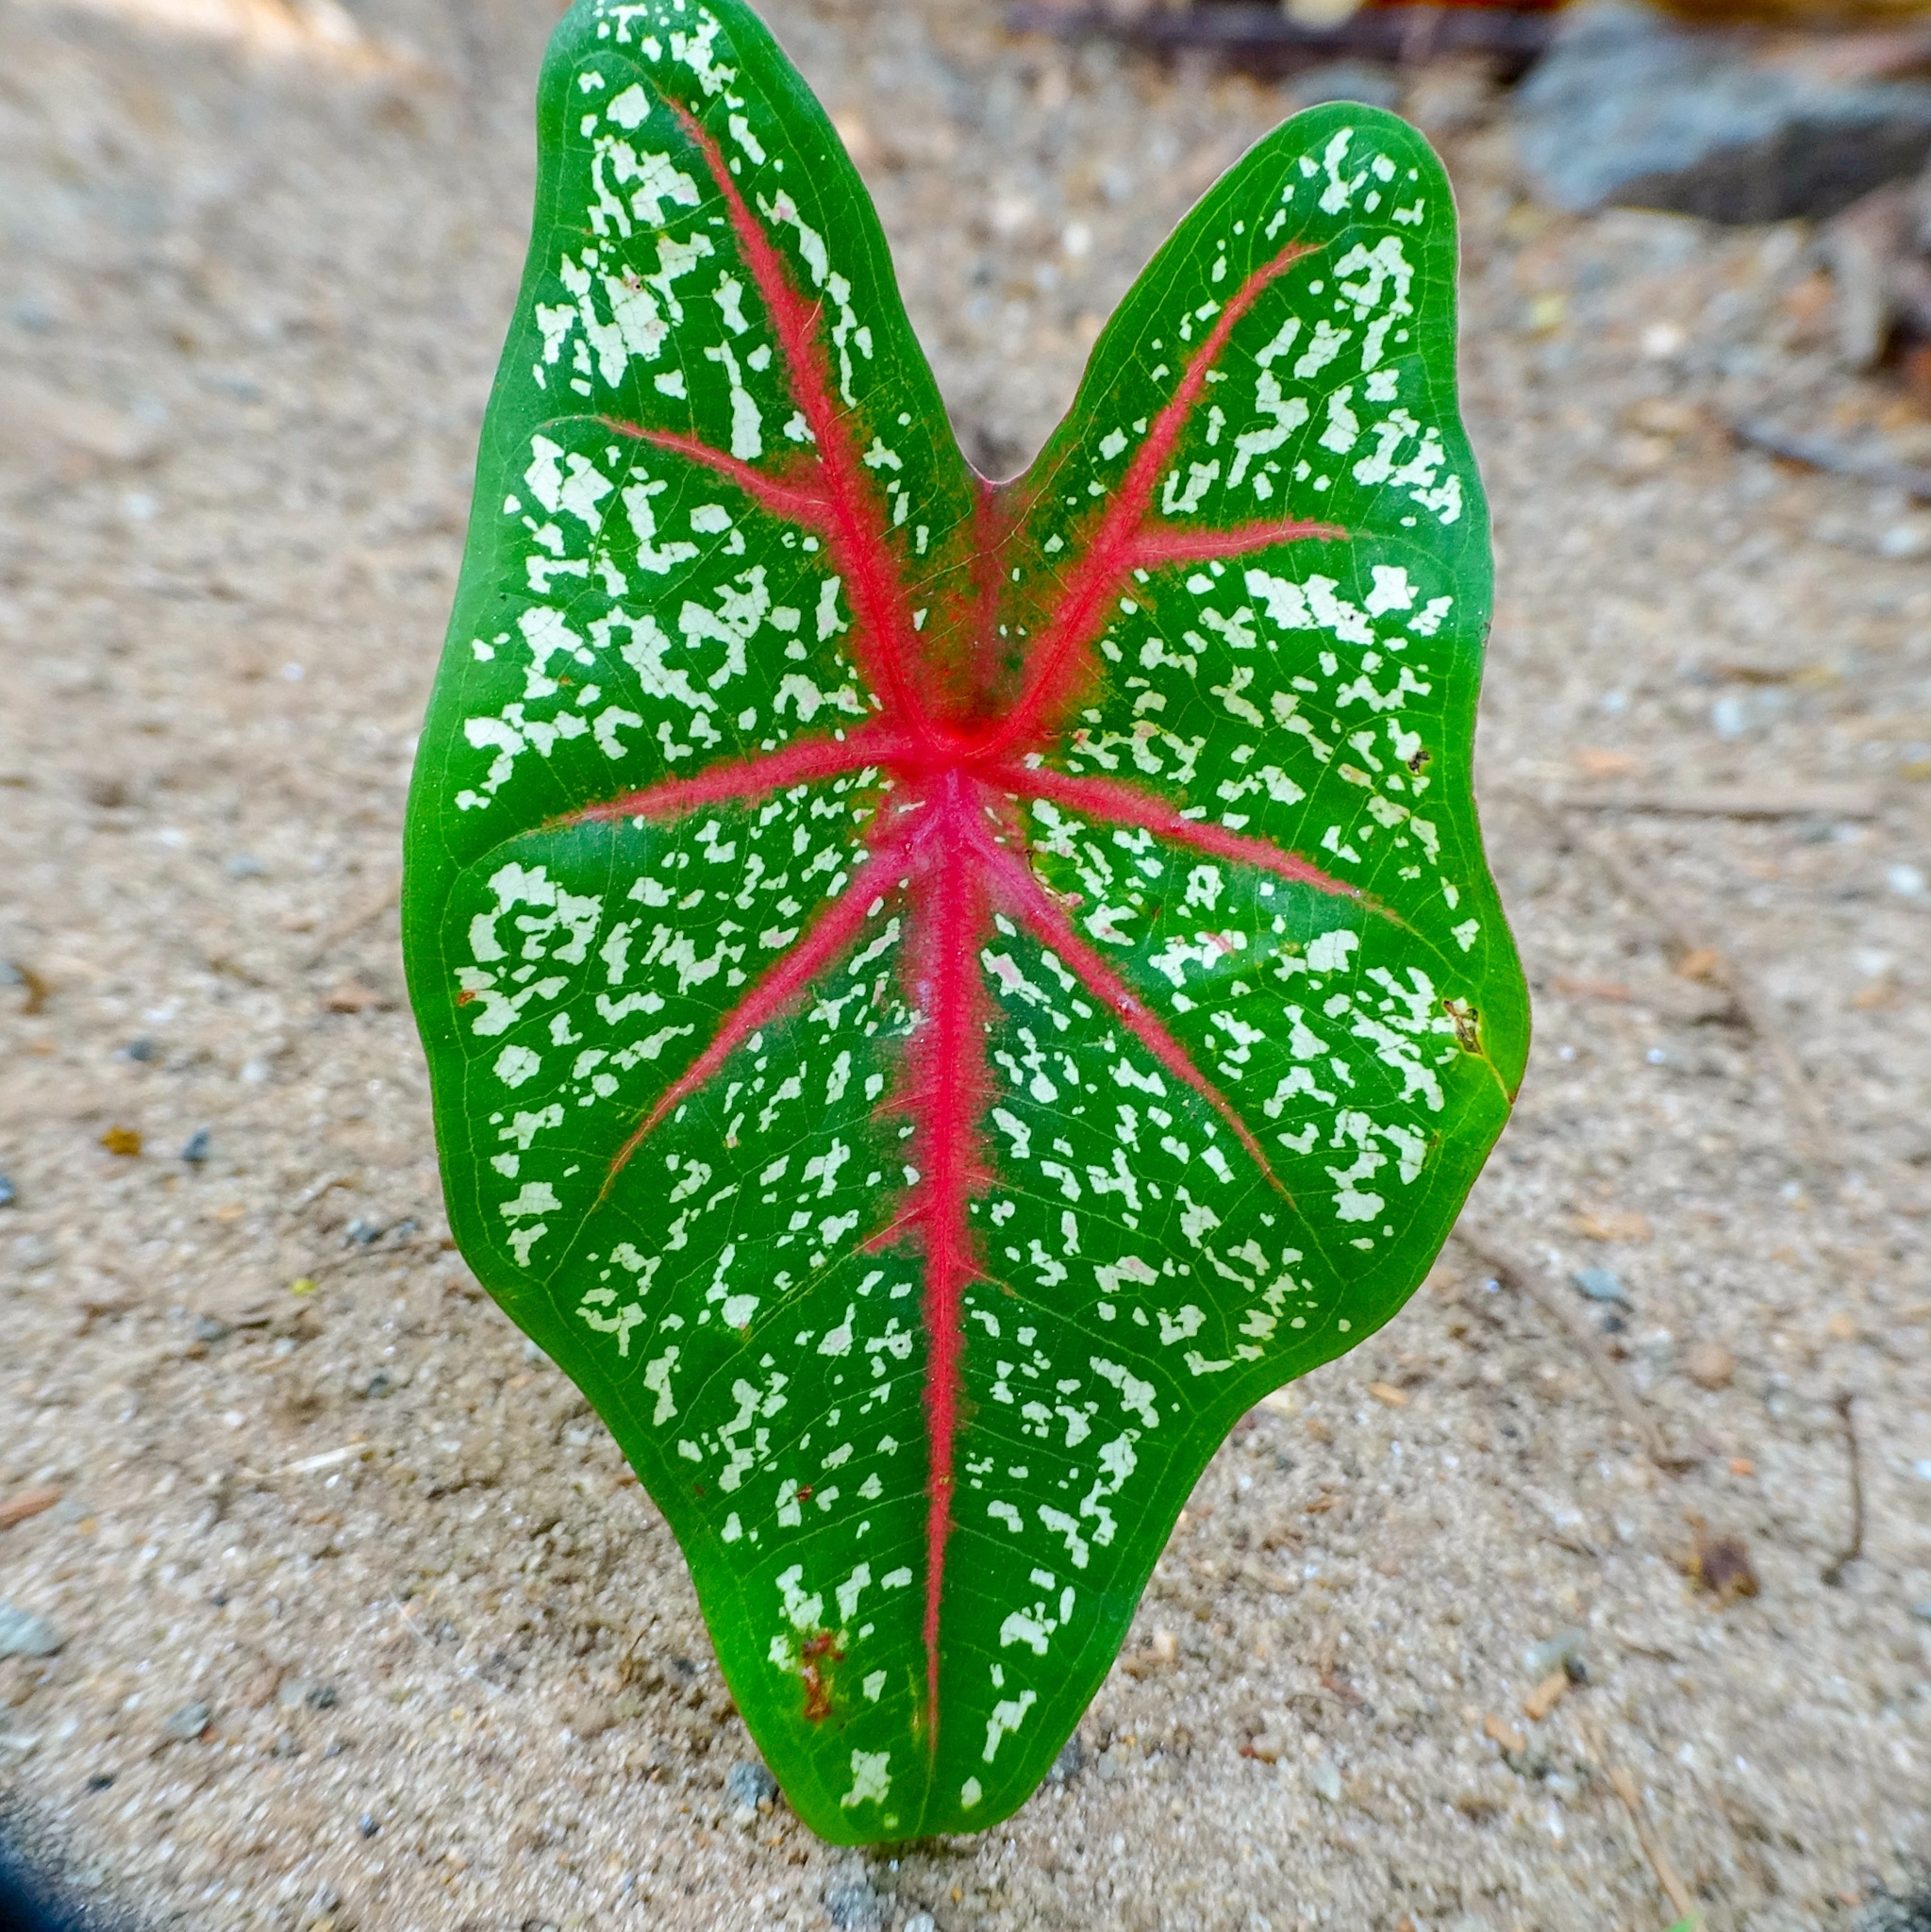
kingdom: Plantae
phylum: Tracheophyta
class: Liliopsida
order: Alismatales
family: Araceae
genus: Caladium
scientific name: Caladium bicolor
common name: Artist's pallet
